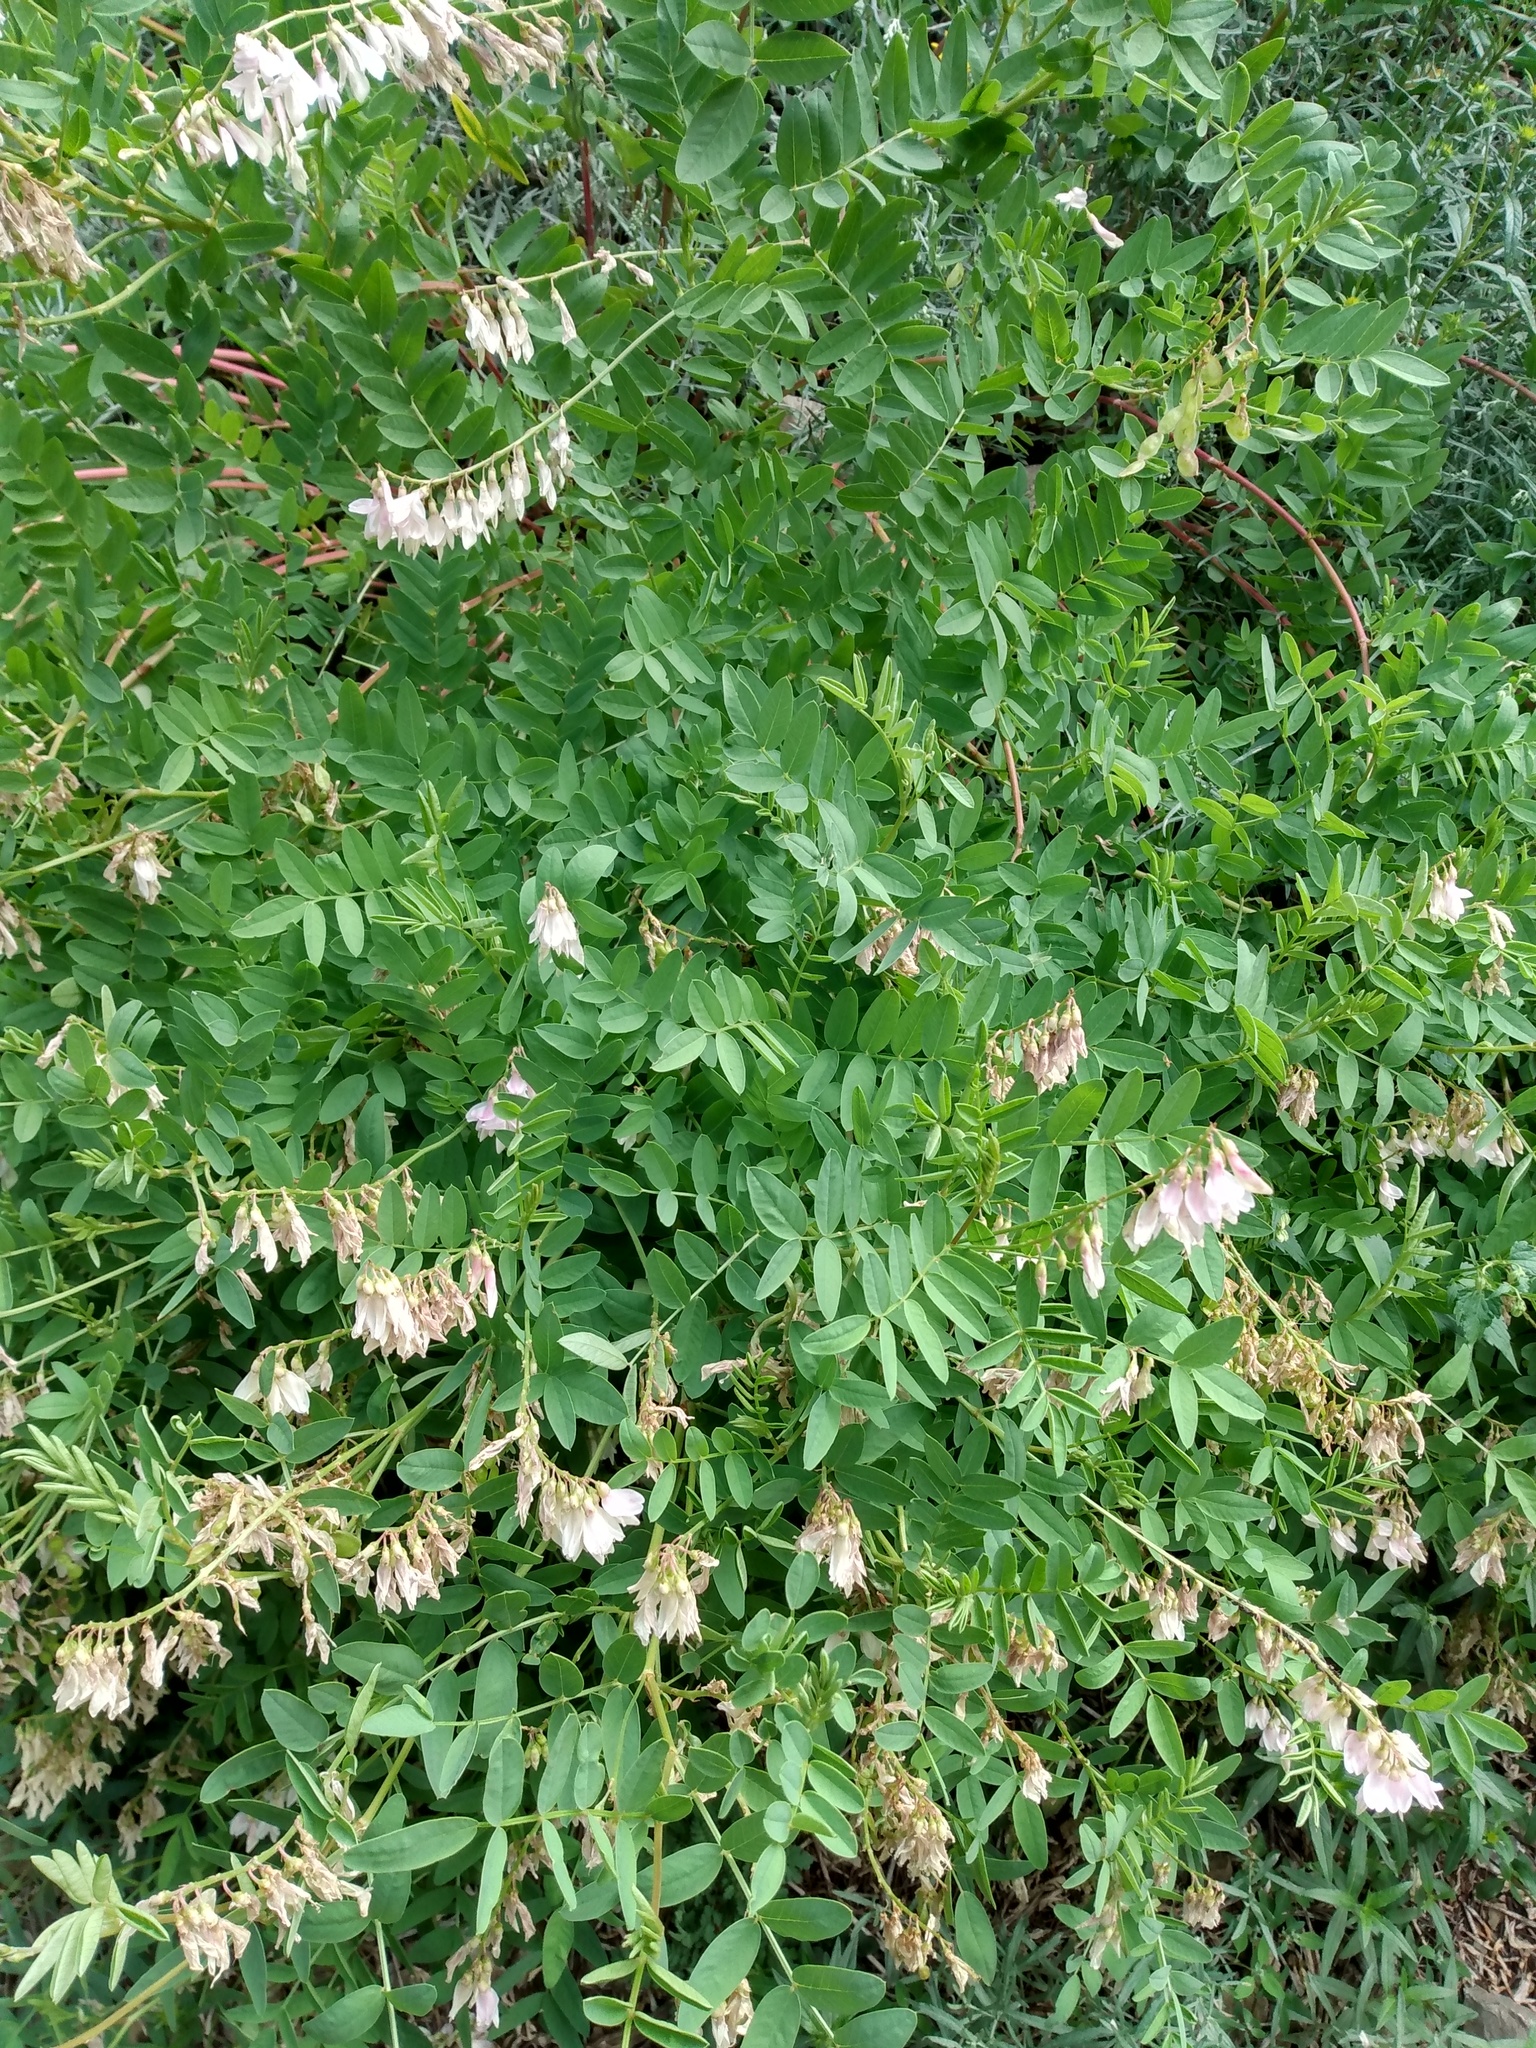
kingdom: Plantae
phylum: Tracheophyta
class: Magnoliopsida
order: Fabales
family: Fabaceae
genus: Hedysarum
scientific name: Hedysarum occidentale
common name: Western hedysarum
